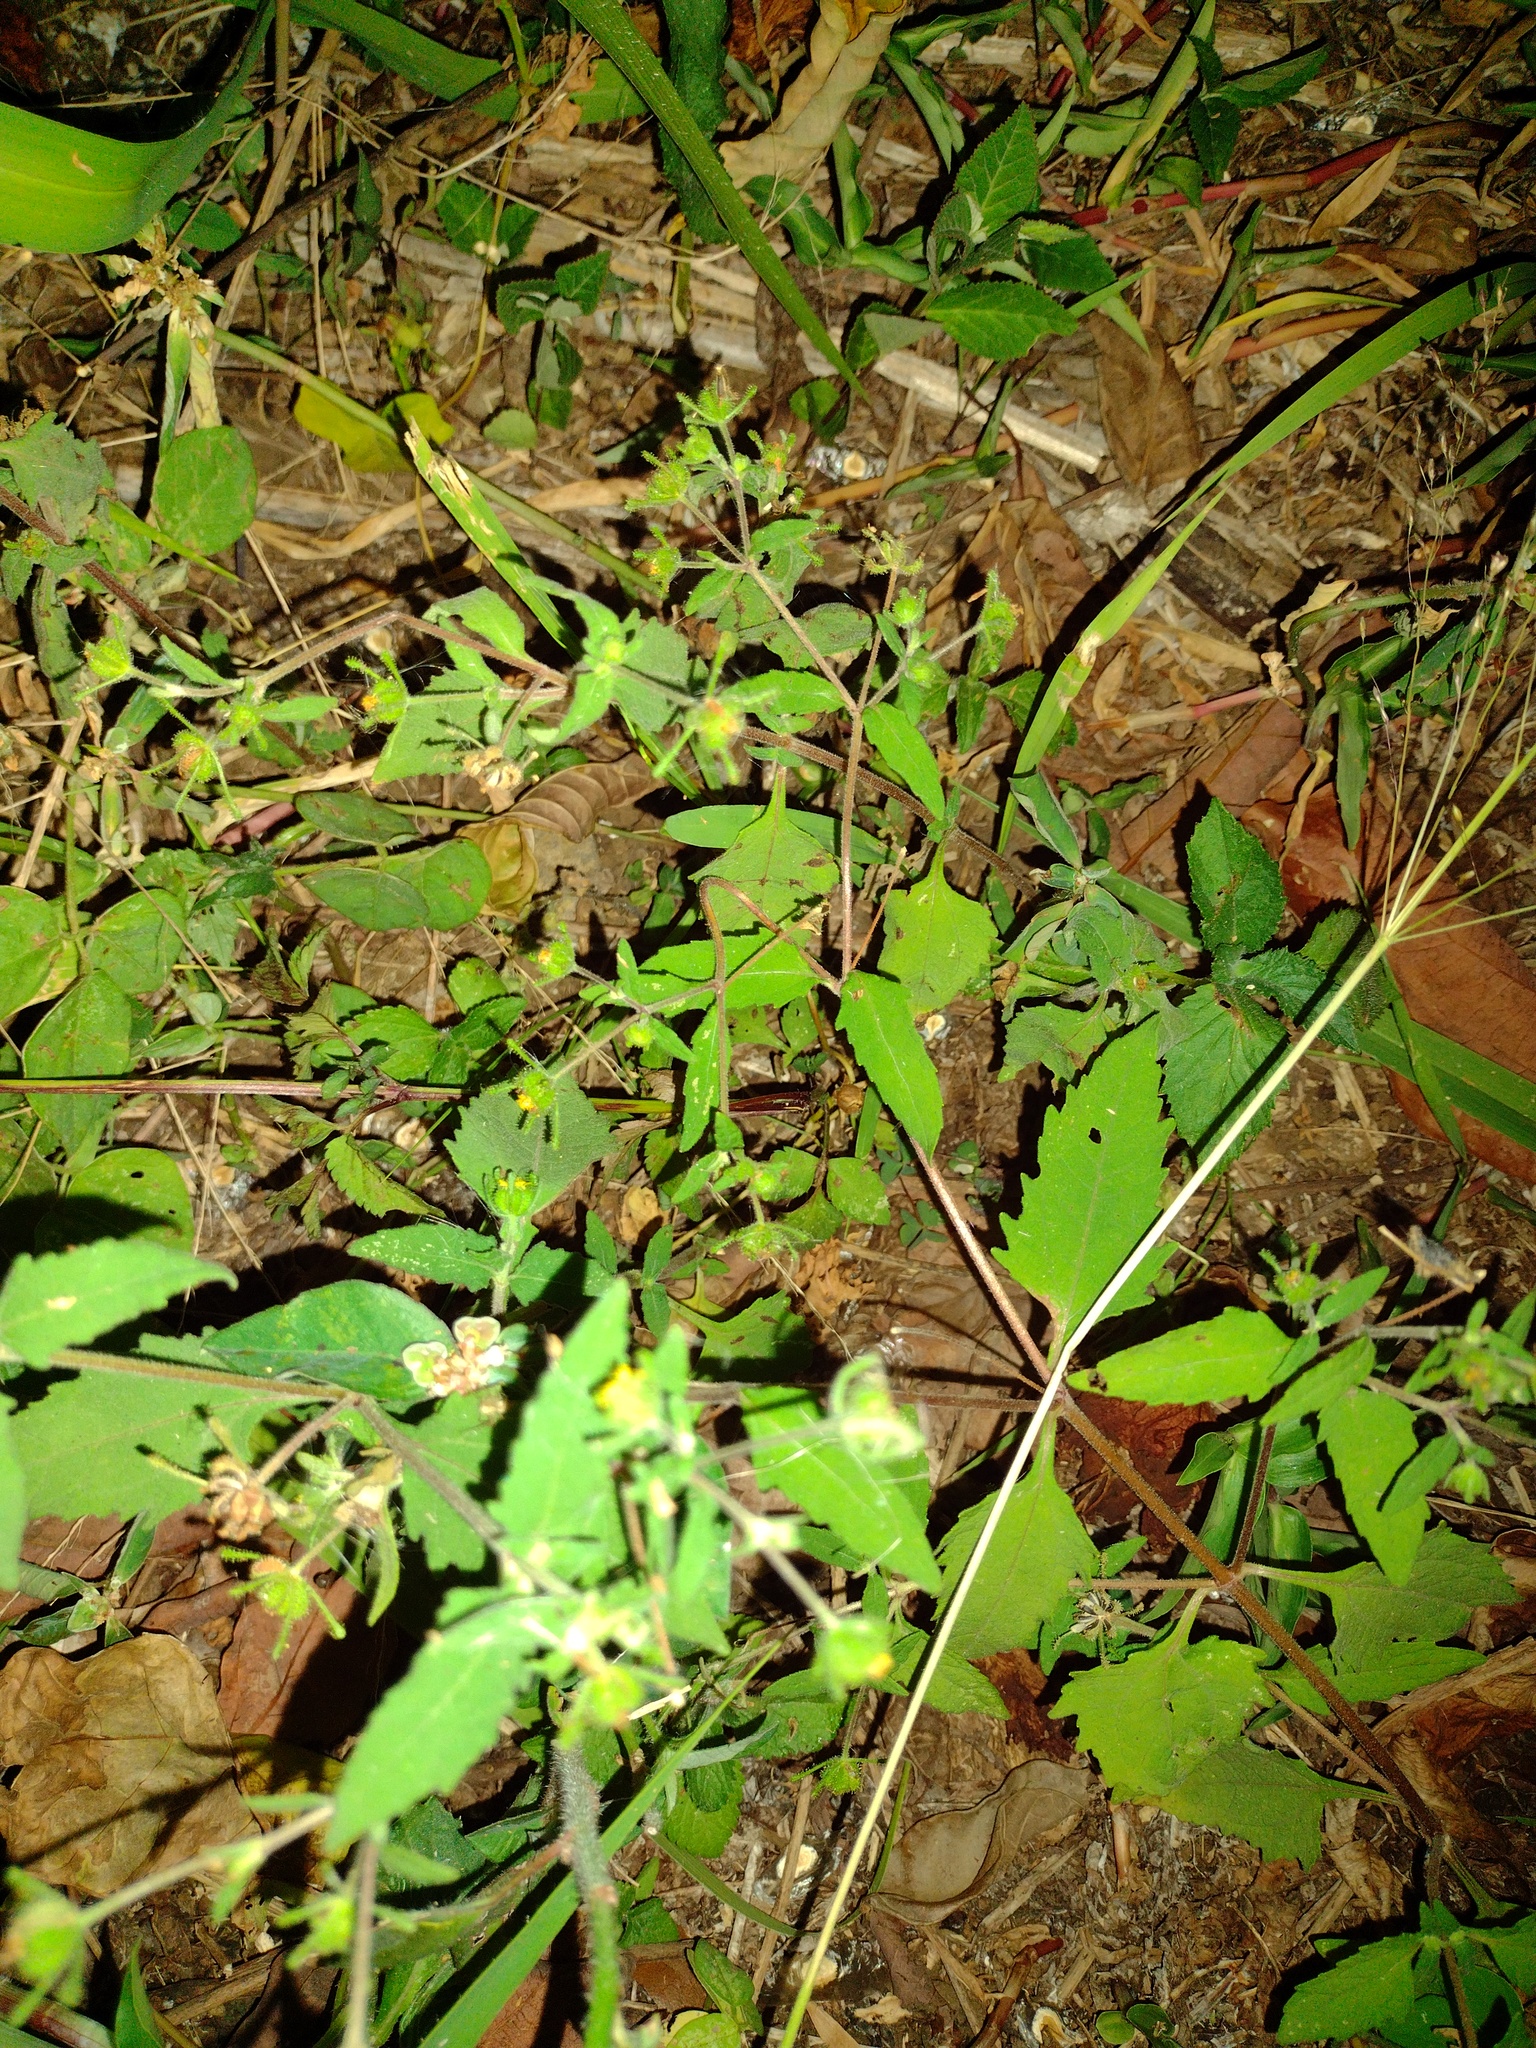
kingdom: Plantae
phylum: Tracheophyta
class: Magnoliopsida
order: Asterales
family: Asteraceae
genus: Sigesbeckia
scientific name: Sigesbeckia orientalis
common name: Eastern st paul's-wort
